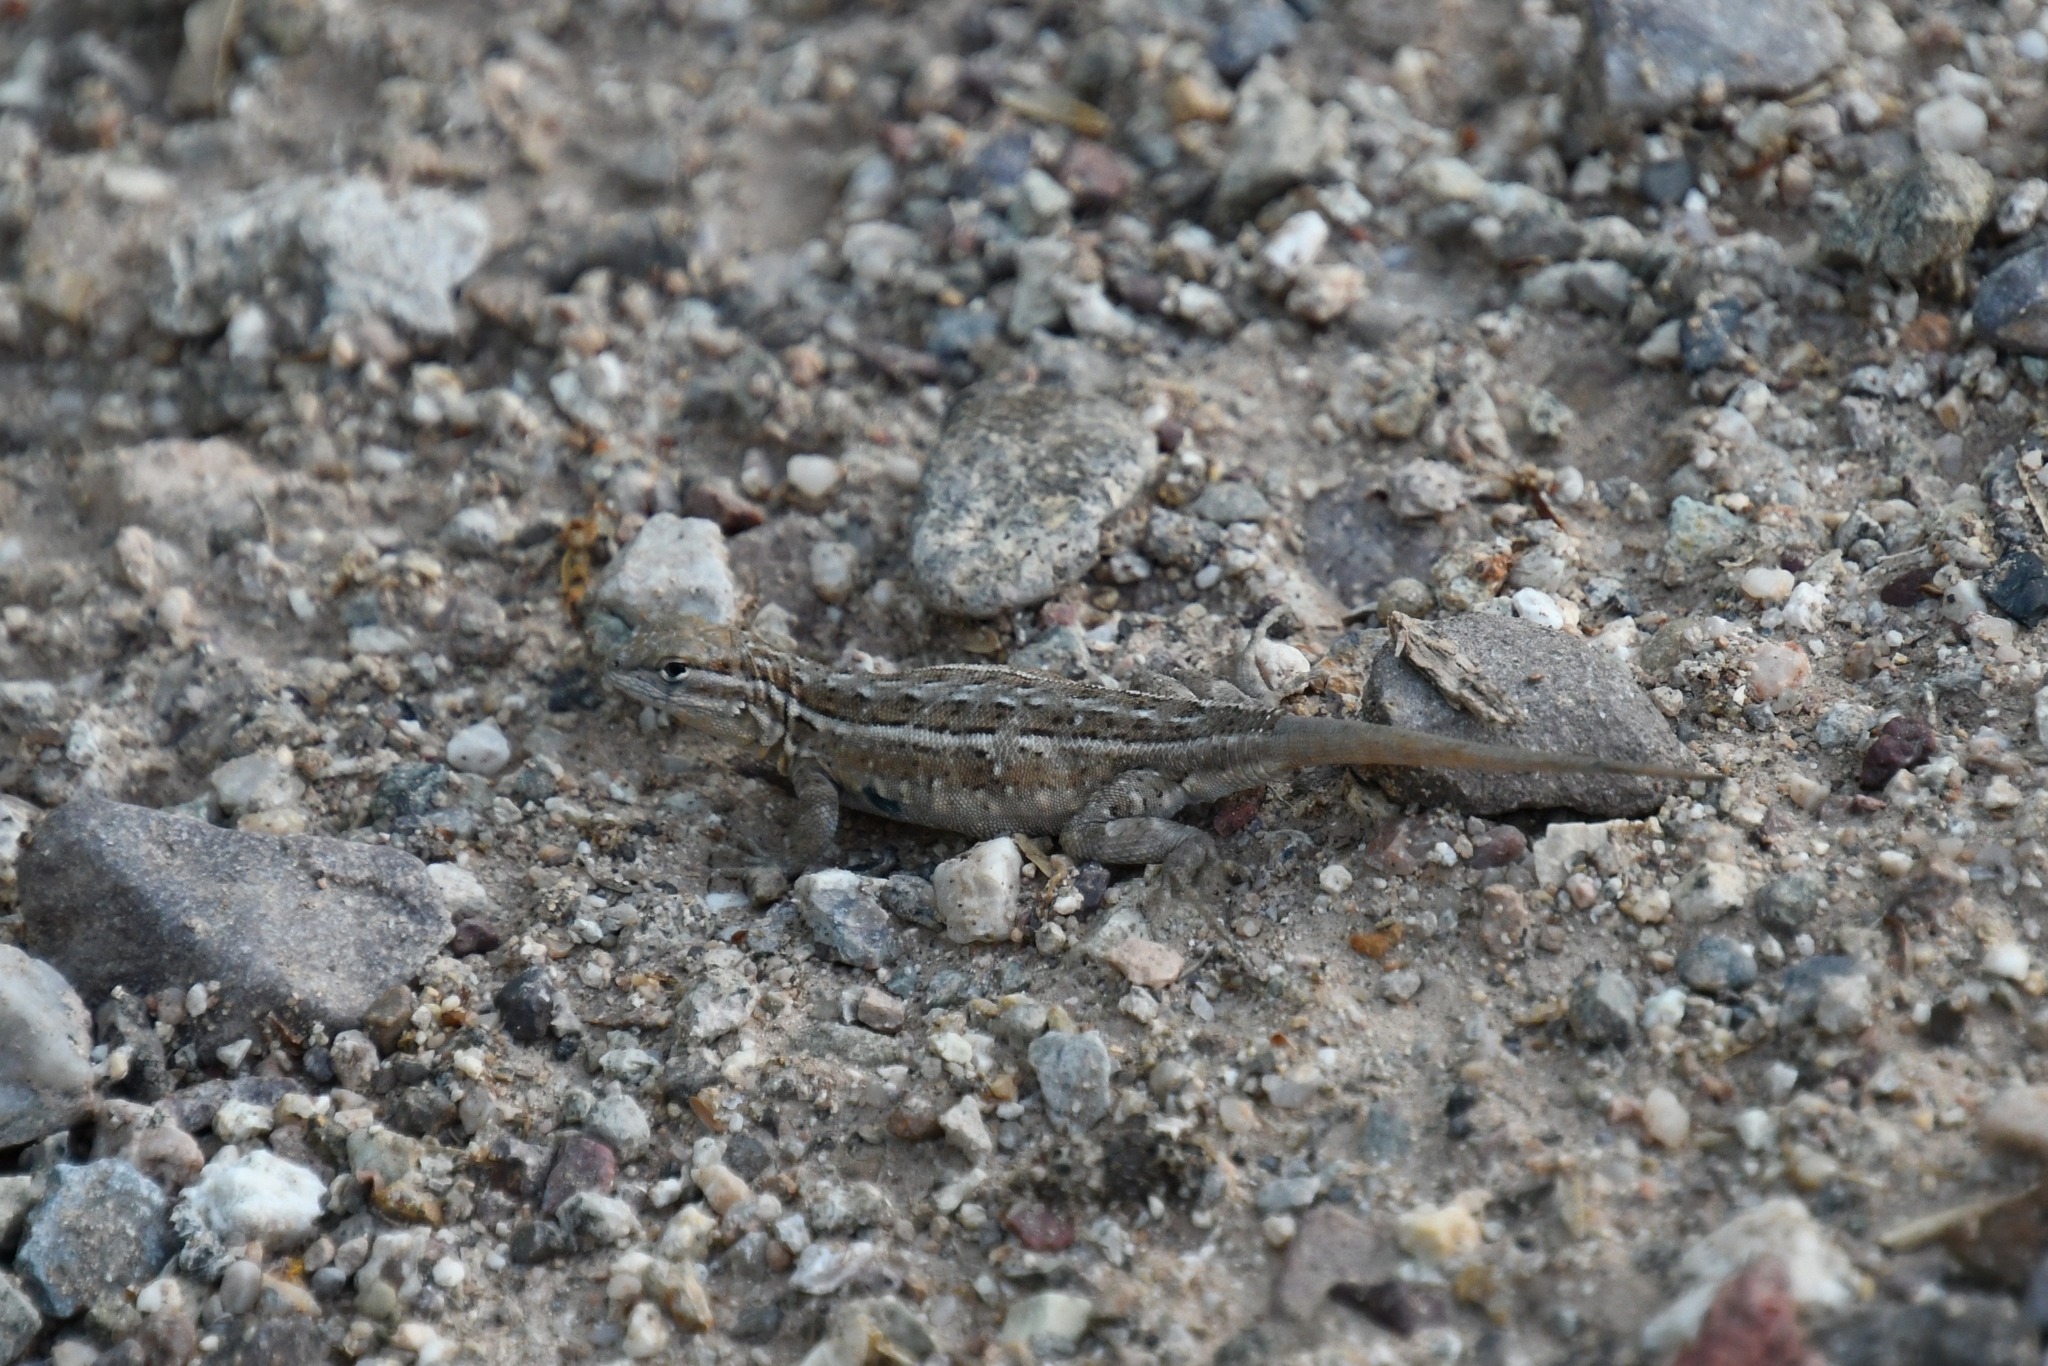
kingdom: Animalia
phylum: Chordata
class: Squamata
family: Phrynosomatidae
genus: Uta
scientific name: Uta stansburiana
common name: Side-blotched lizard
